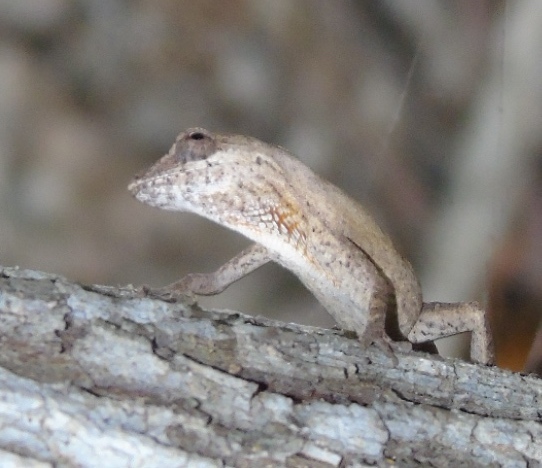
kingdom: Animalia
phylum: Chordata
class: Squamata
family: Dactyloidae
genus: Anolis
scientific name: Anolis nebulosus
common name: Clouded anole
